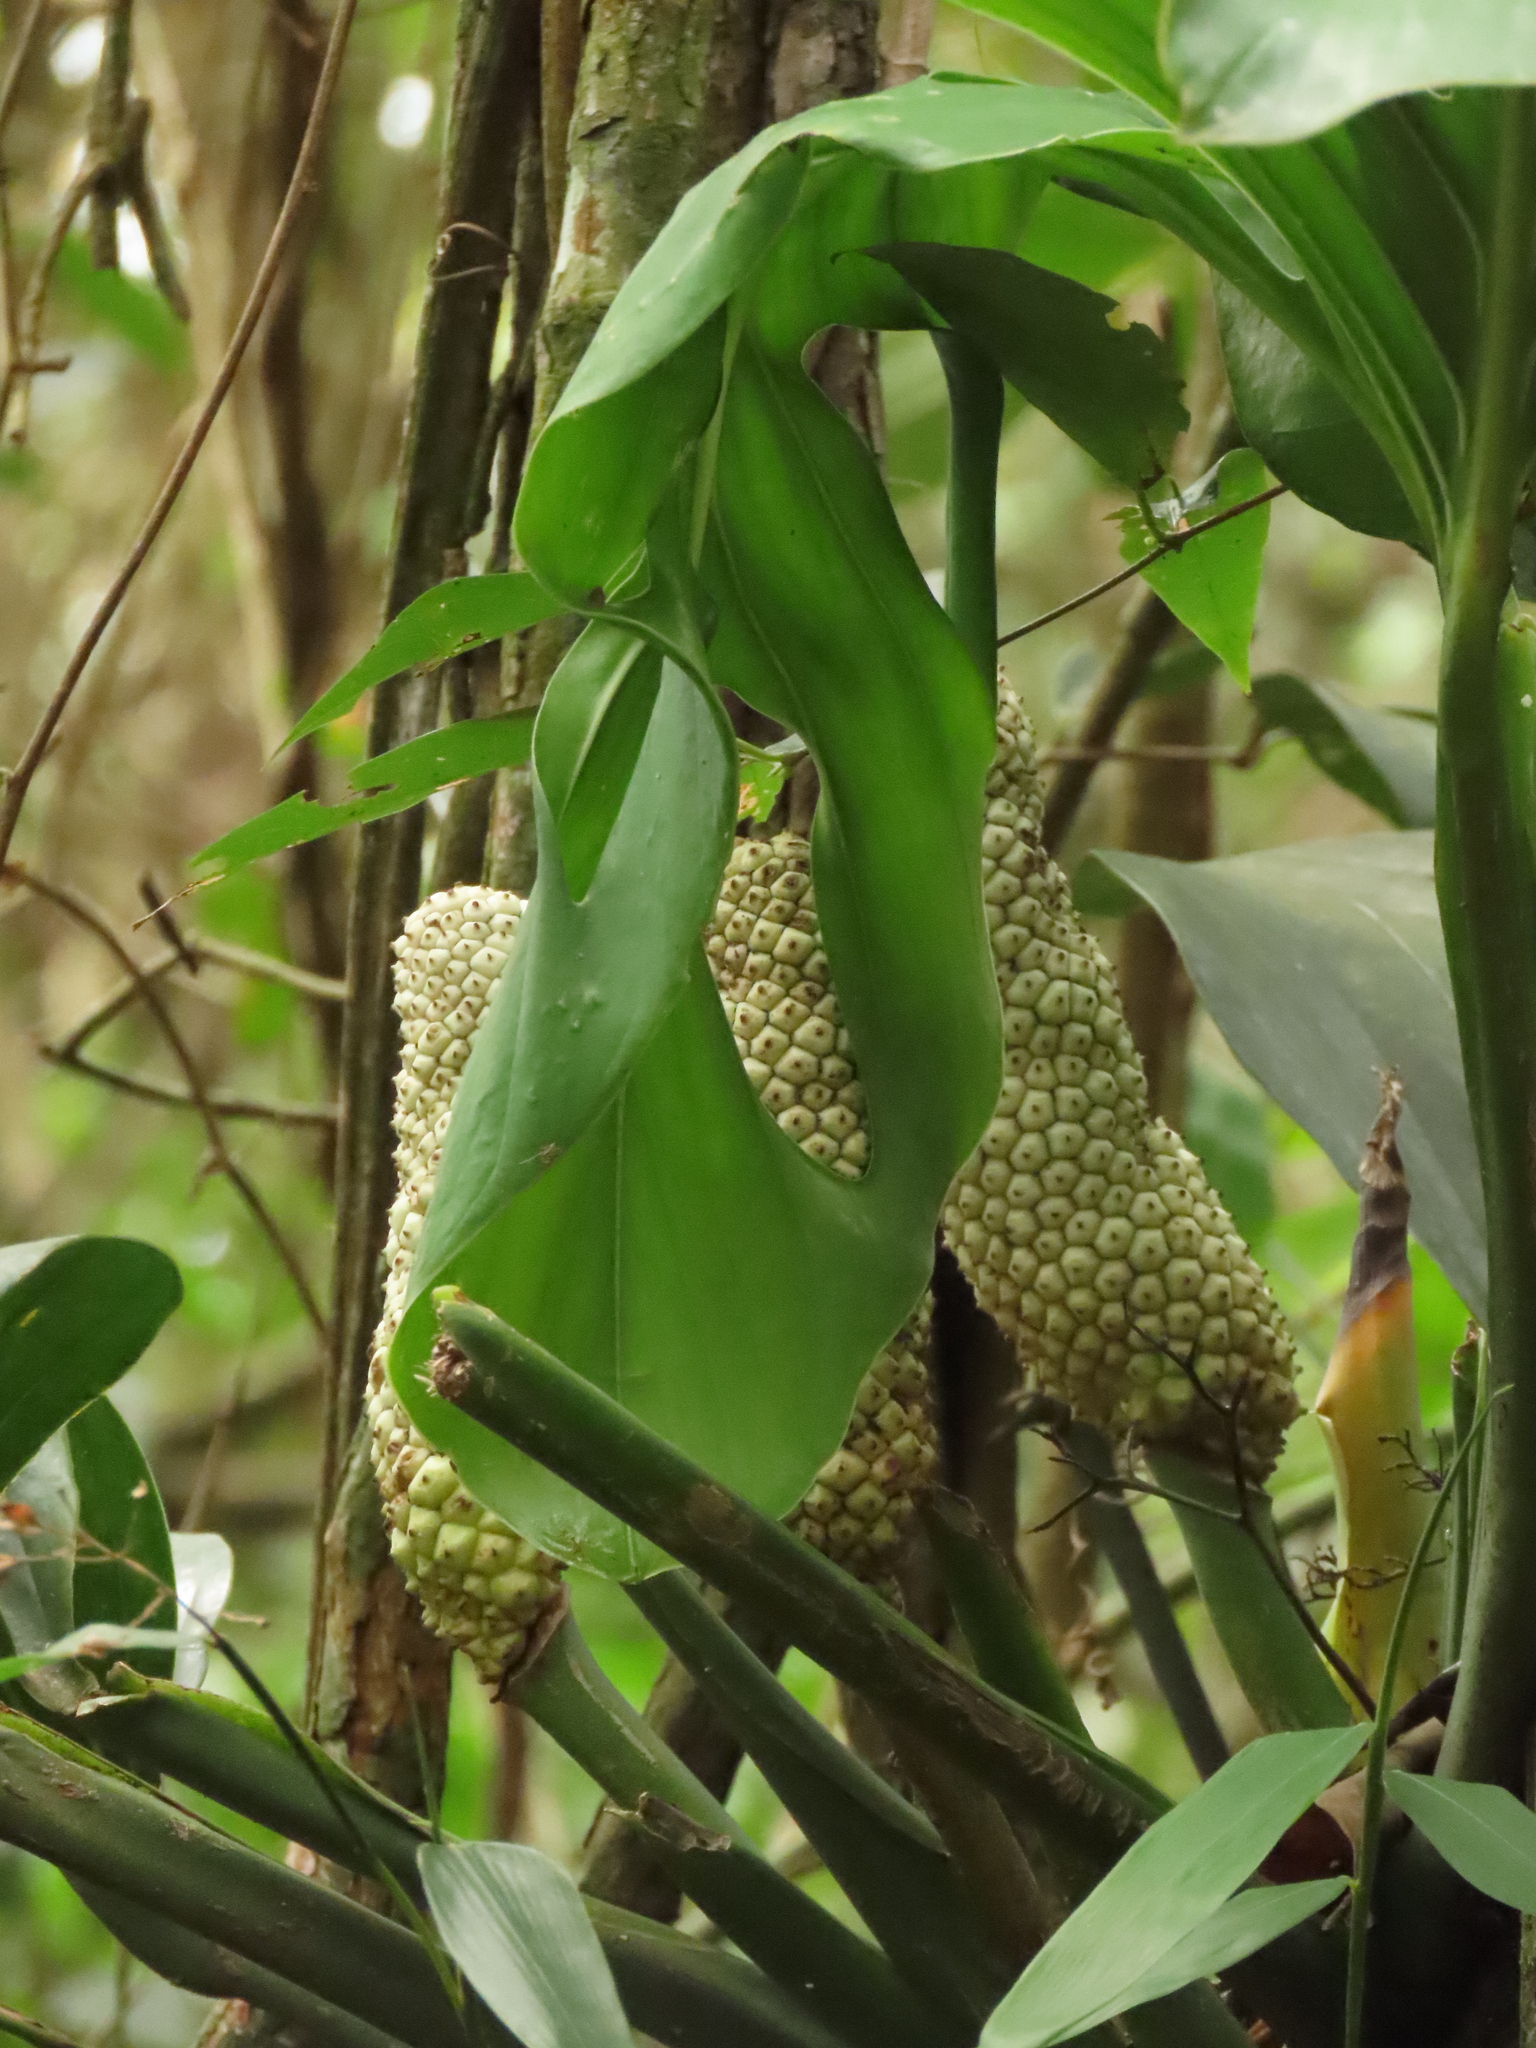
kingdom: Plantae
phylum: Tracheophyta
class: Liliopsida
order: Alismatales
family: Araceae
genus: Monstera
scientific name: Monstera adansonii
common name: Tarovine
